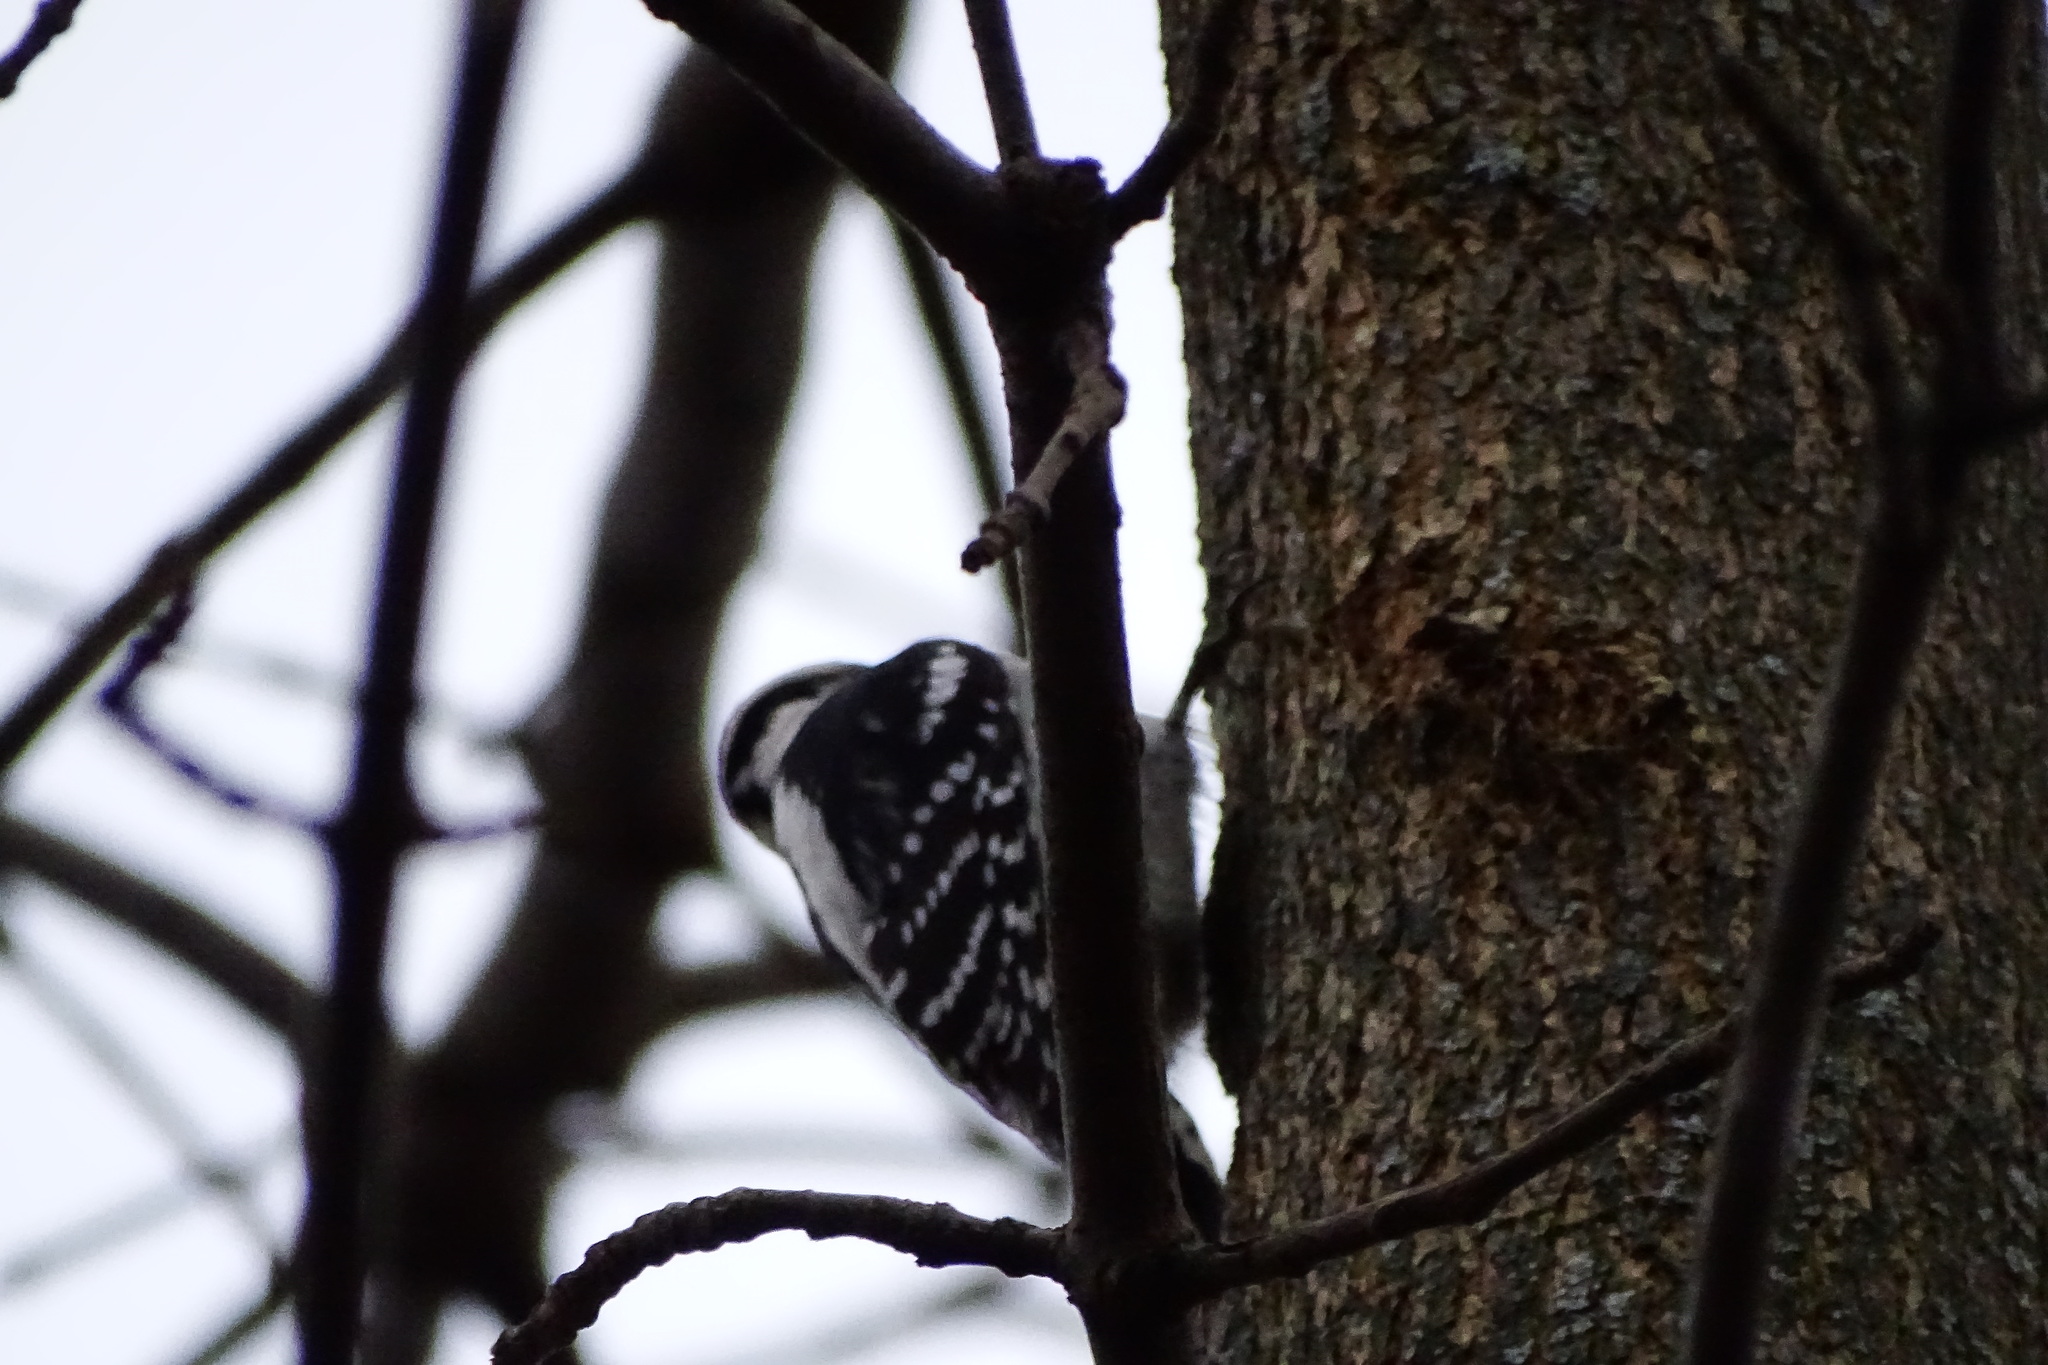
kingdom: Animalia
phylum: Chordata
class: Aves
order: Piciformes
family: Picidae
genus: Dryobates
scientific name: Dryobates pubescens
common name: Downy woodpecker
